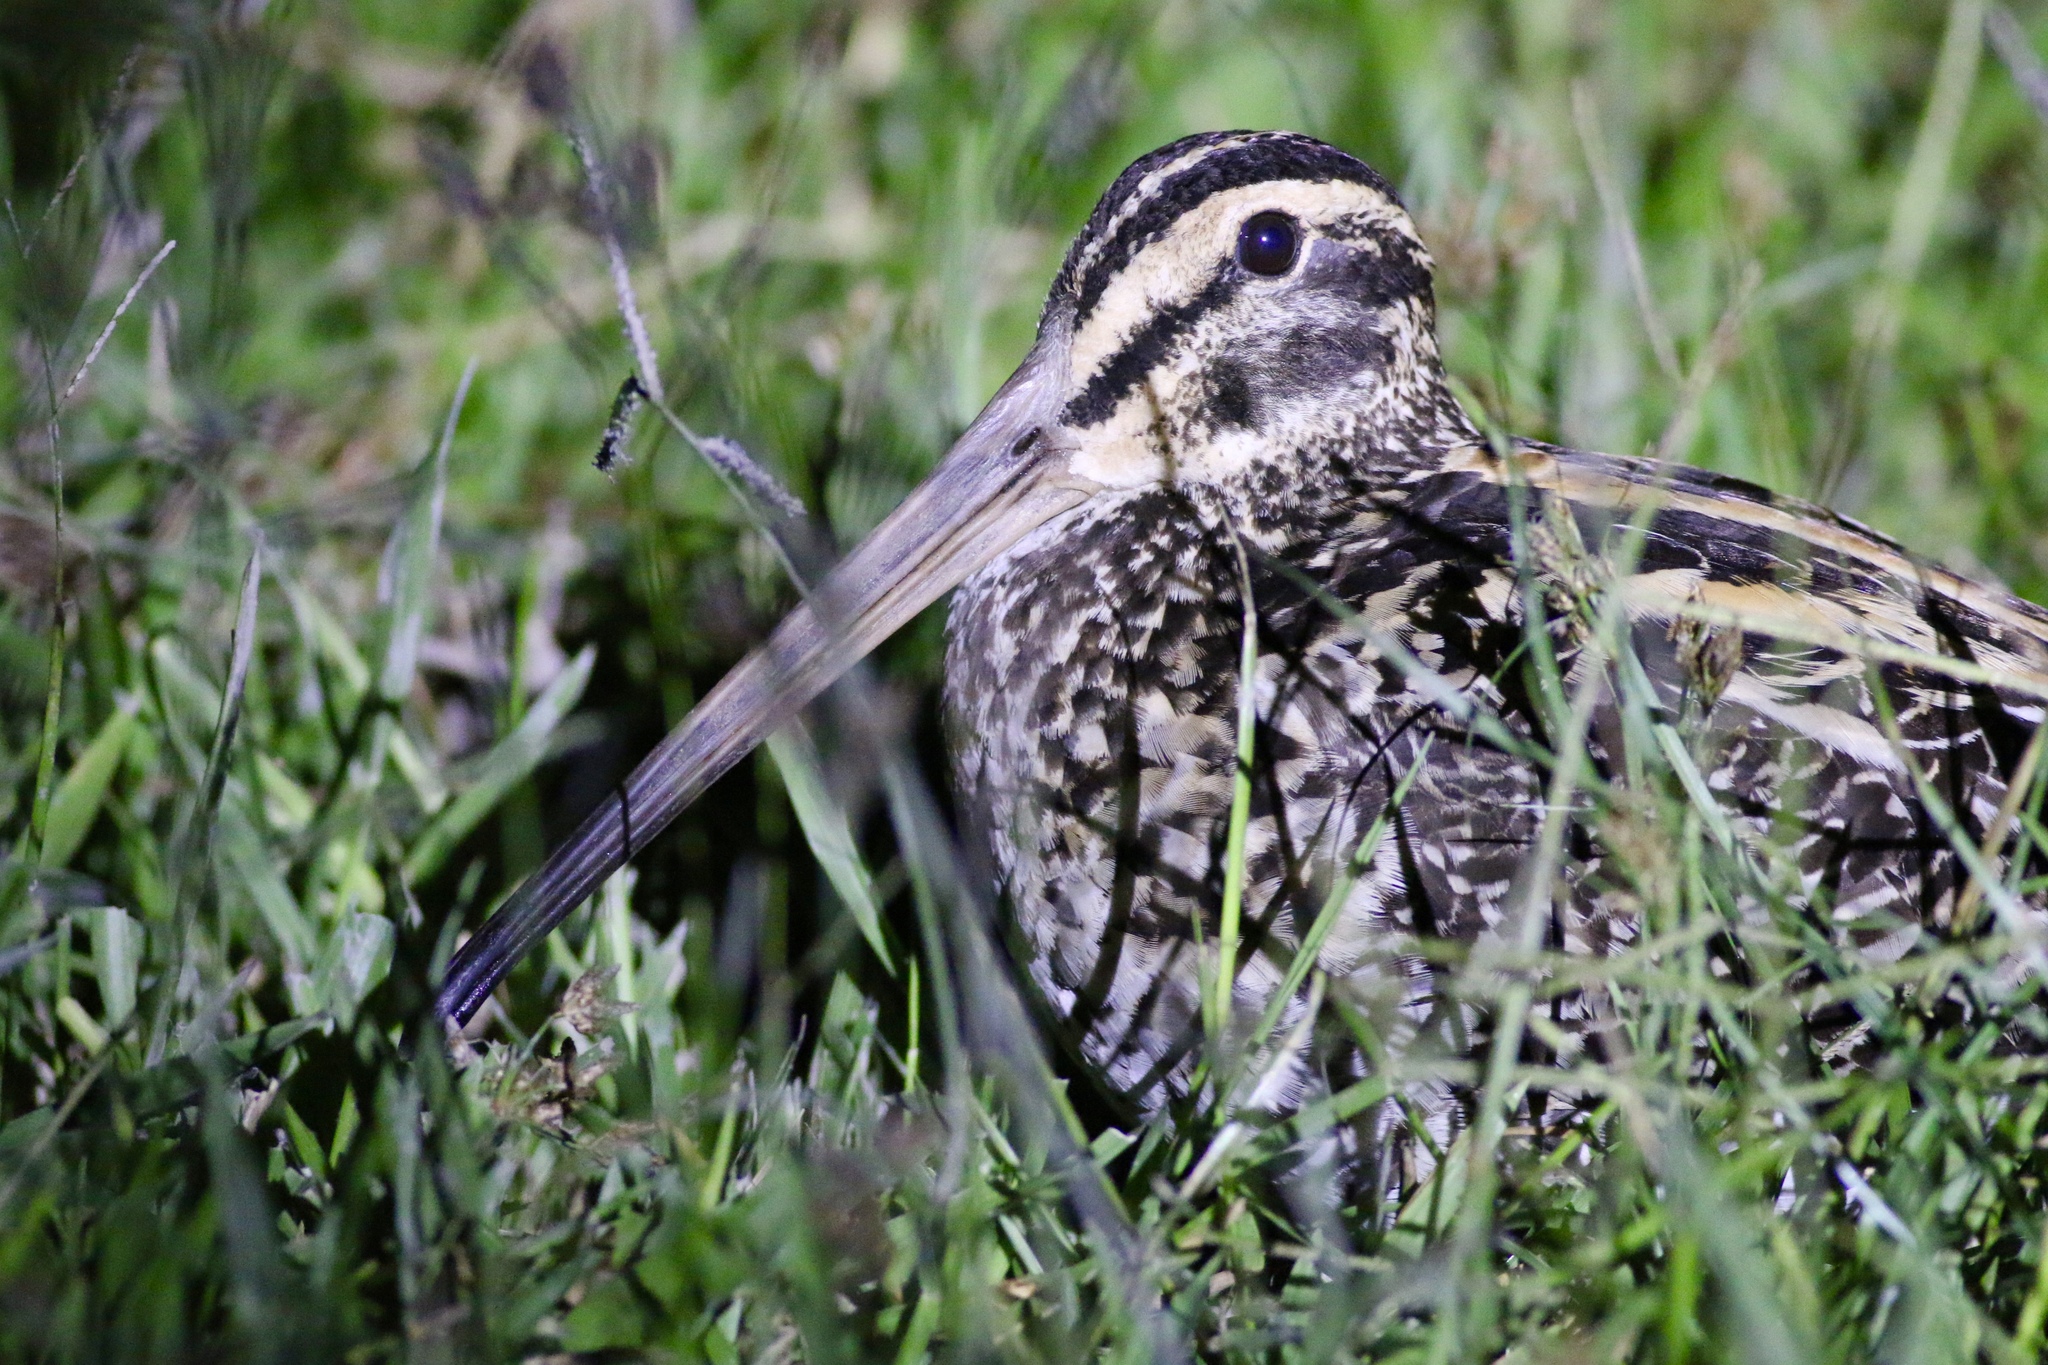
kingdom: Animalia
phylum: Chordata
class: Aves
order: Charadriiformes
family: Scolopacidae
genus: Gallinago
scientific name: Gallinago undulata
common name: Giant snipe
